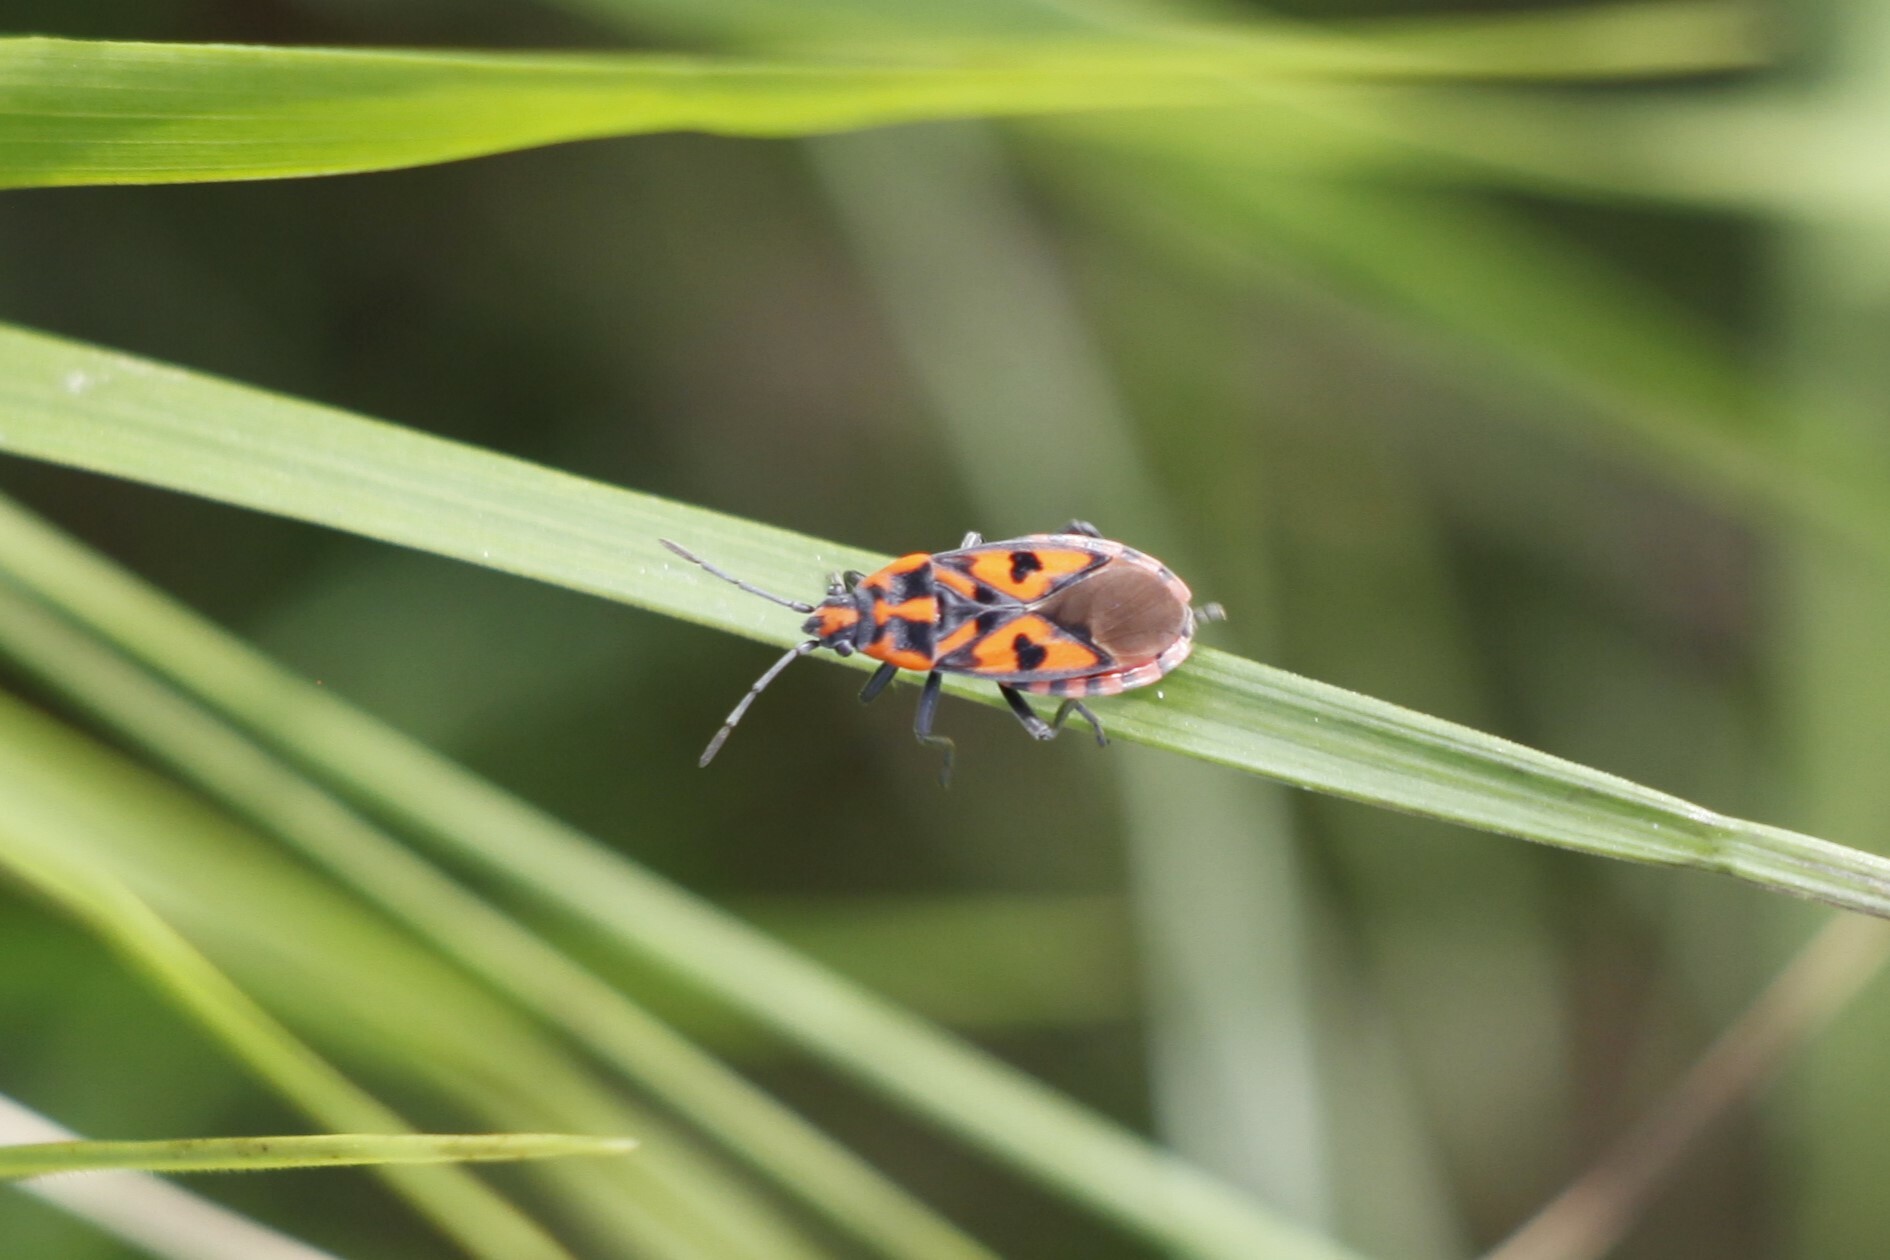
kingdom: Animalia
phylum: Arthropoda
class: Insecta
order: Hemiptera
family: Lygaeidae
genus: Spilostethus
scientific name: Spilostethus saxatilis
